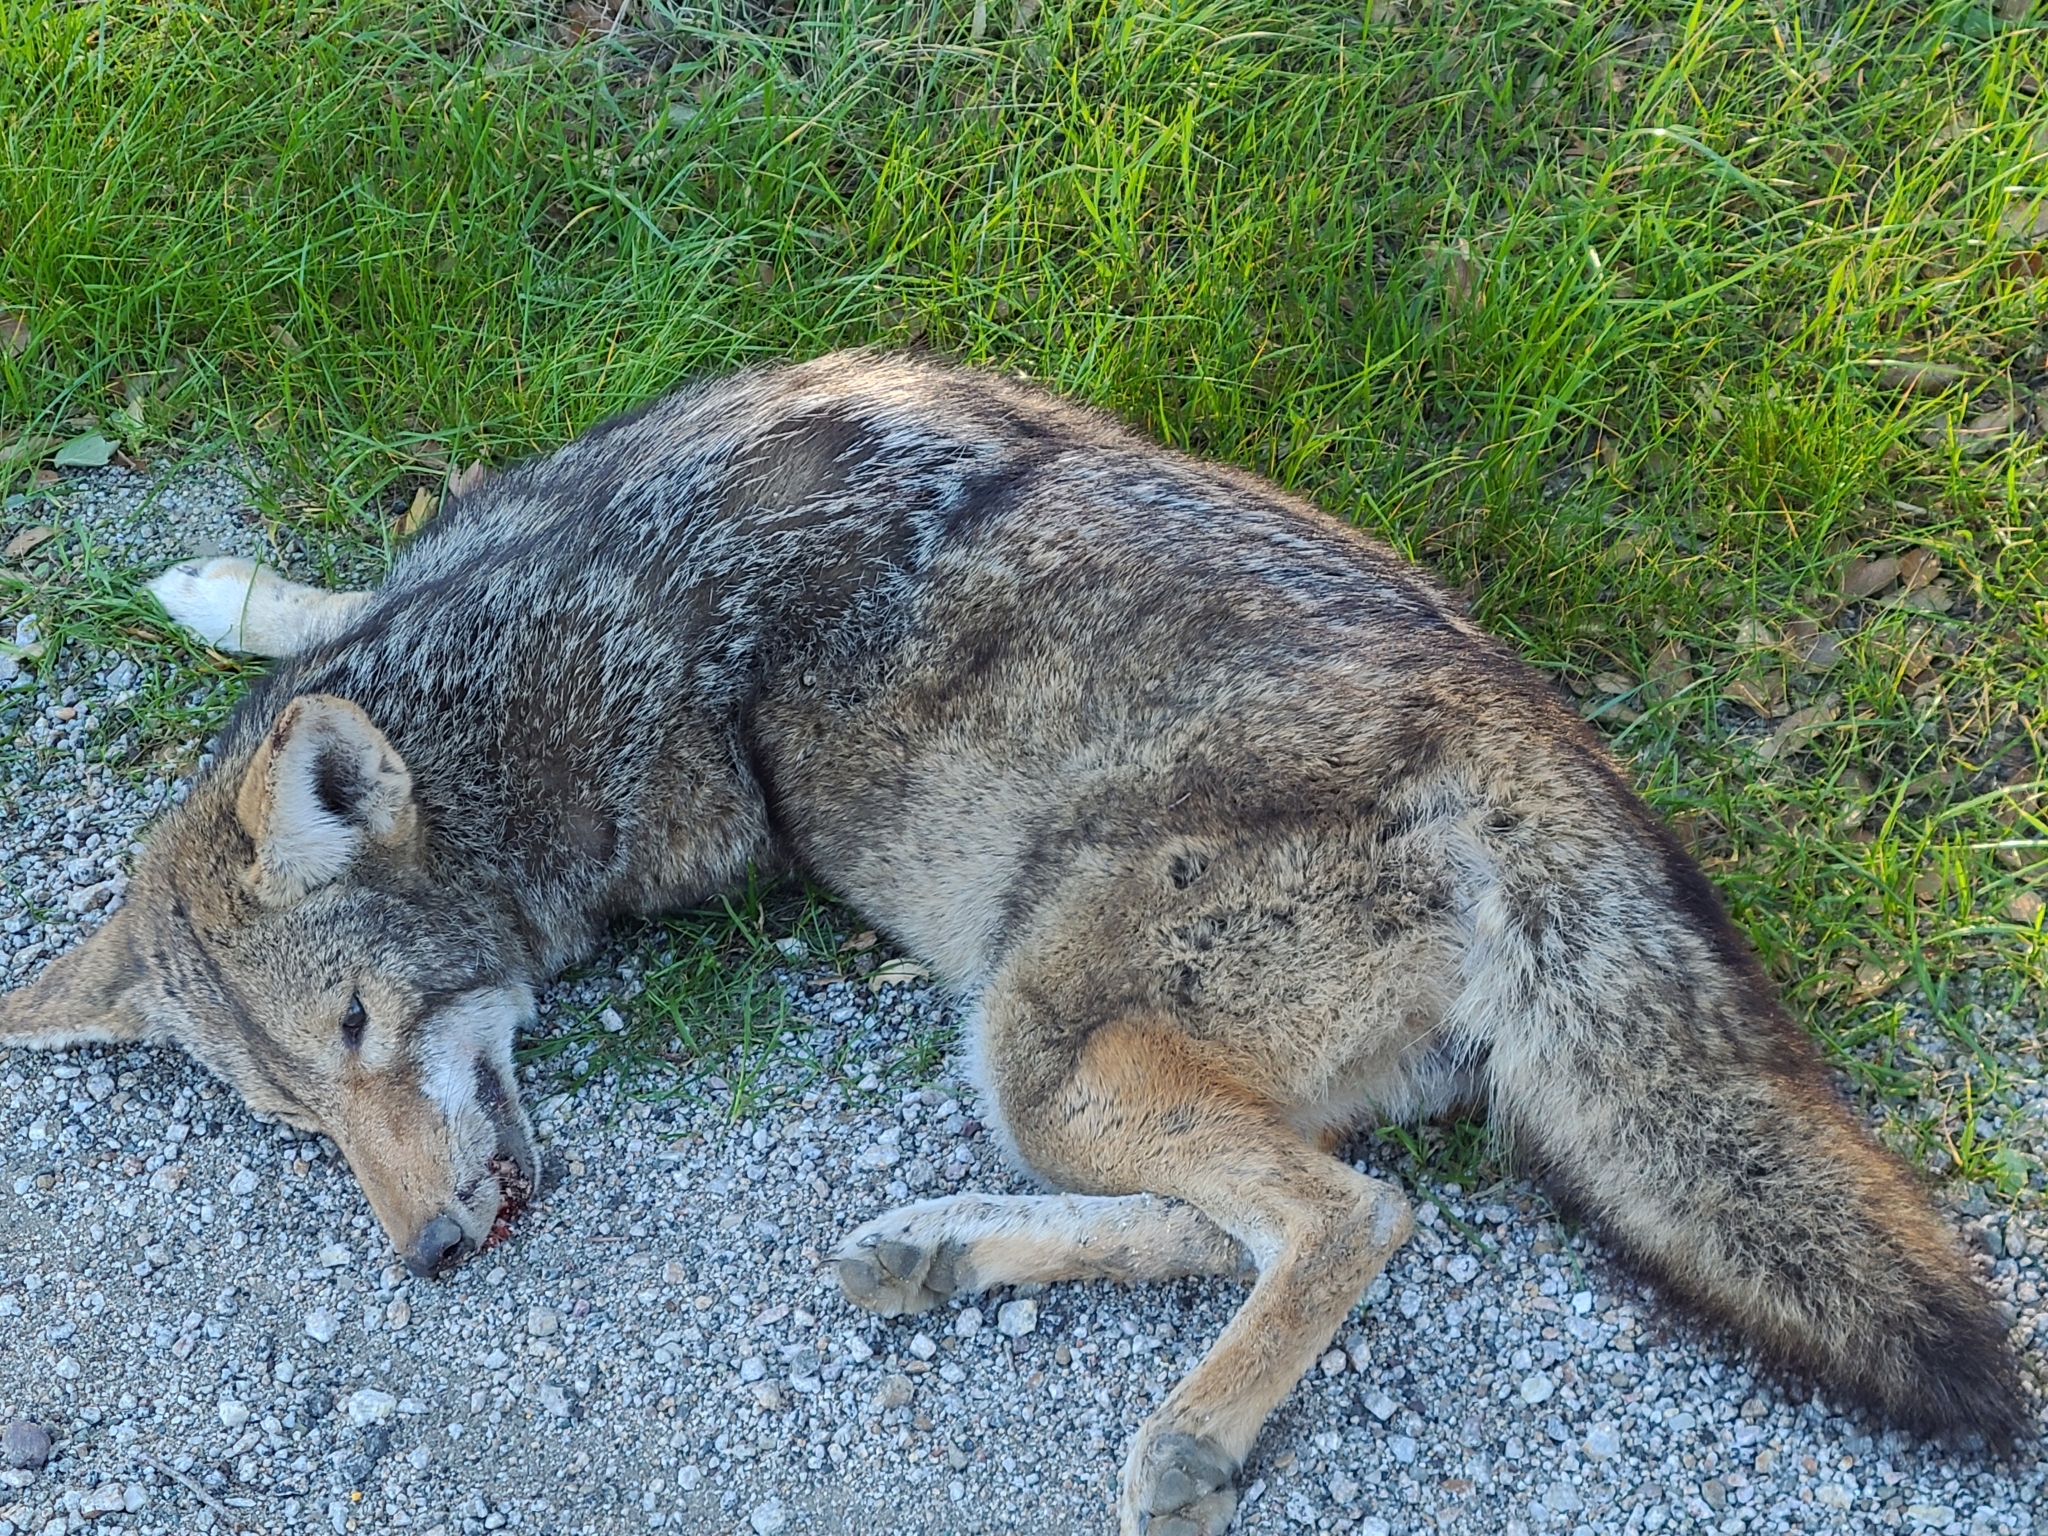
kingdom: Animalia
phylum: Chordata
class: Mammalia
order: Carnivora
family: Canidae
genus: Canis
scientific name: Canis latrans
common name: Coyote
